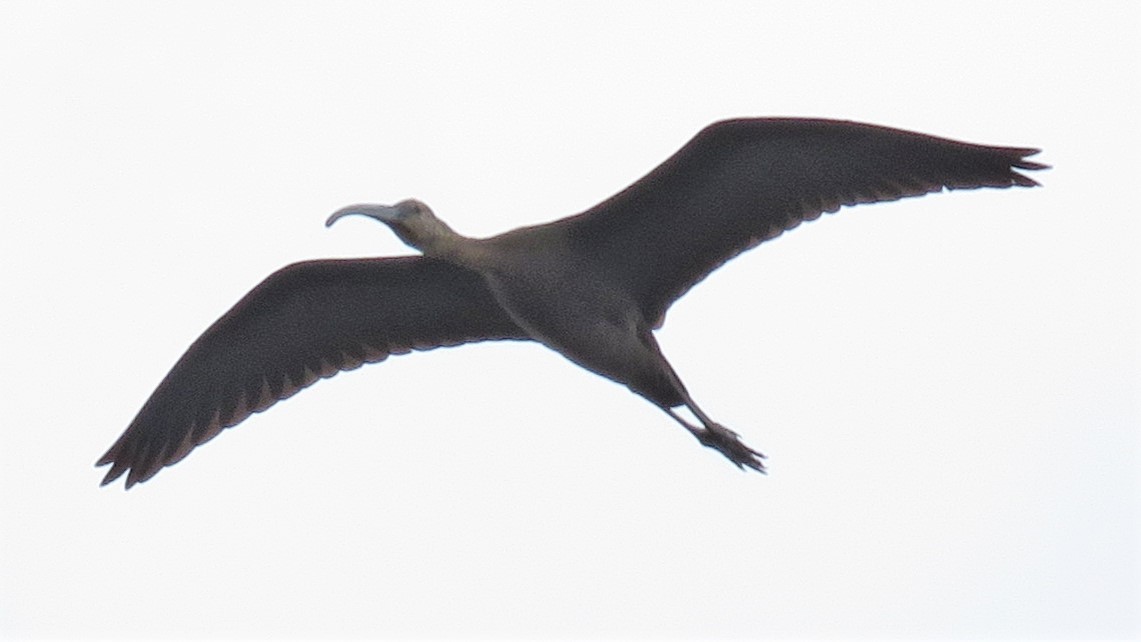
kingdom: Animalia
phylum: Chordata
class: Aves
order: Pelecaniformes
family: Threskiornithidae
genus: Plegadis
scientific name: Plegadis
